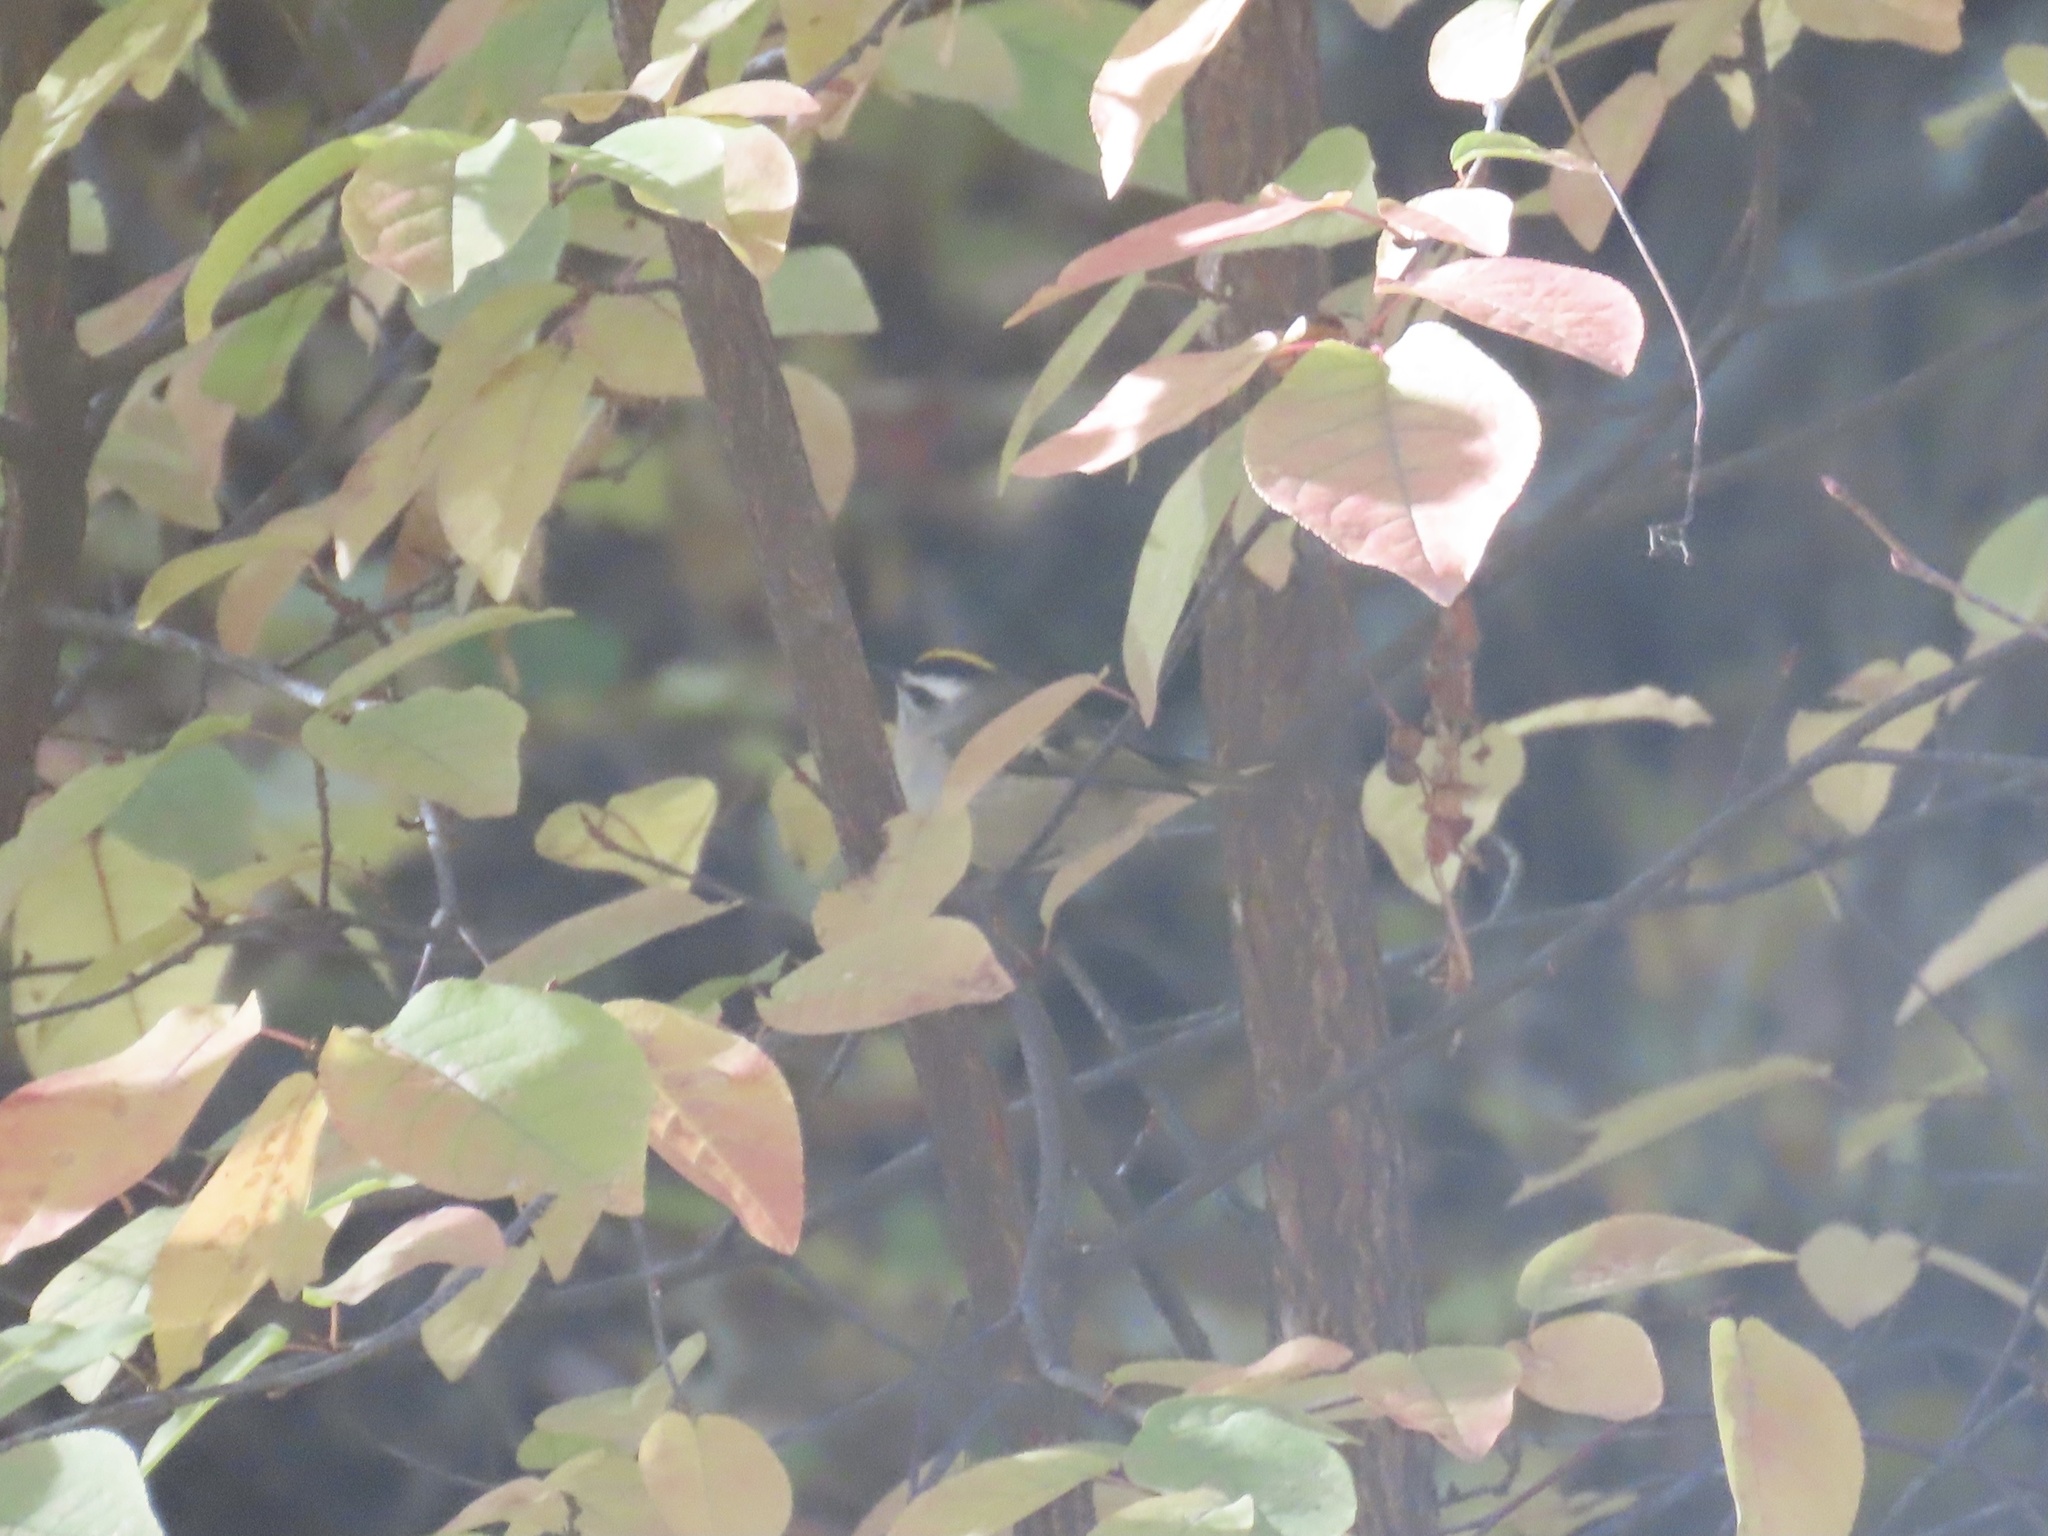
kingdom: Animalia
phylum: Chordata
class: Aves
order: Passeriformes
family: Regulidae
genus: Regulus
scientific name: Regulus satrapa
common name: Golden-crowned kinglet
